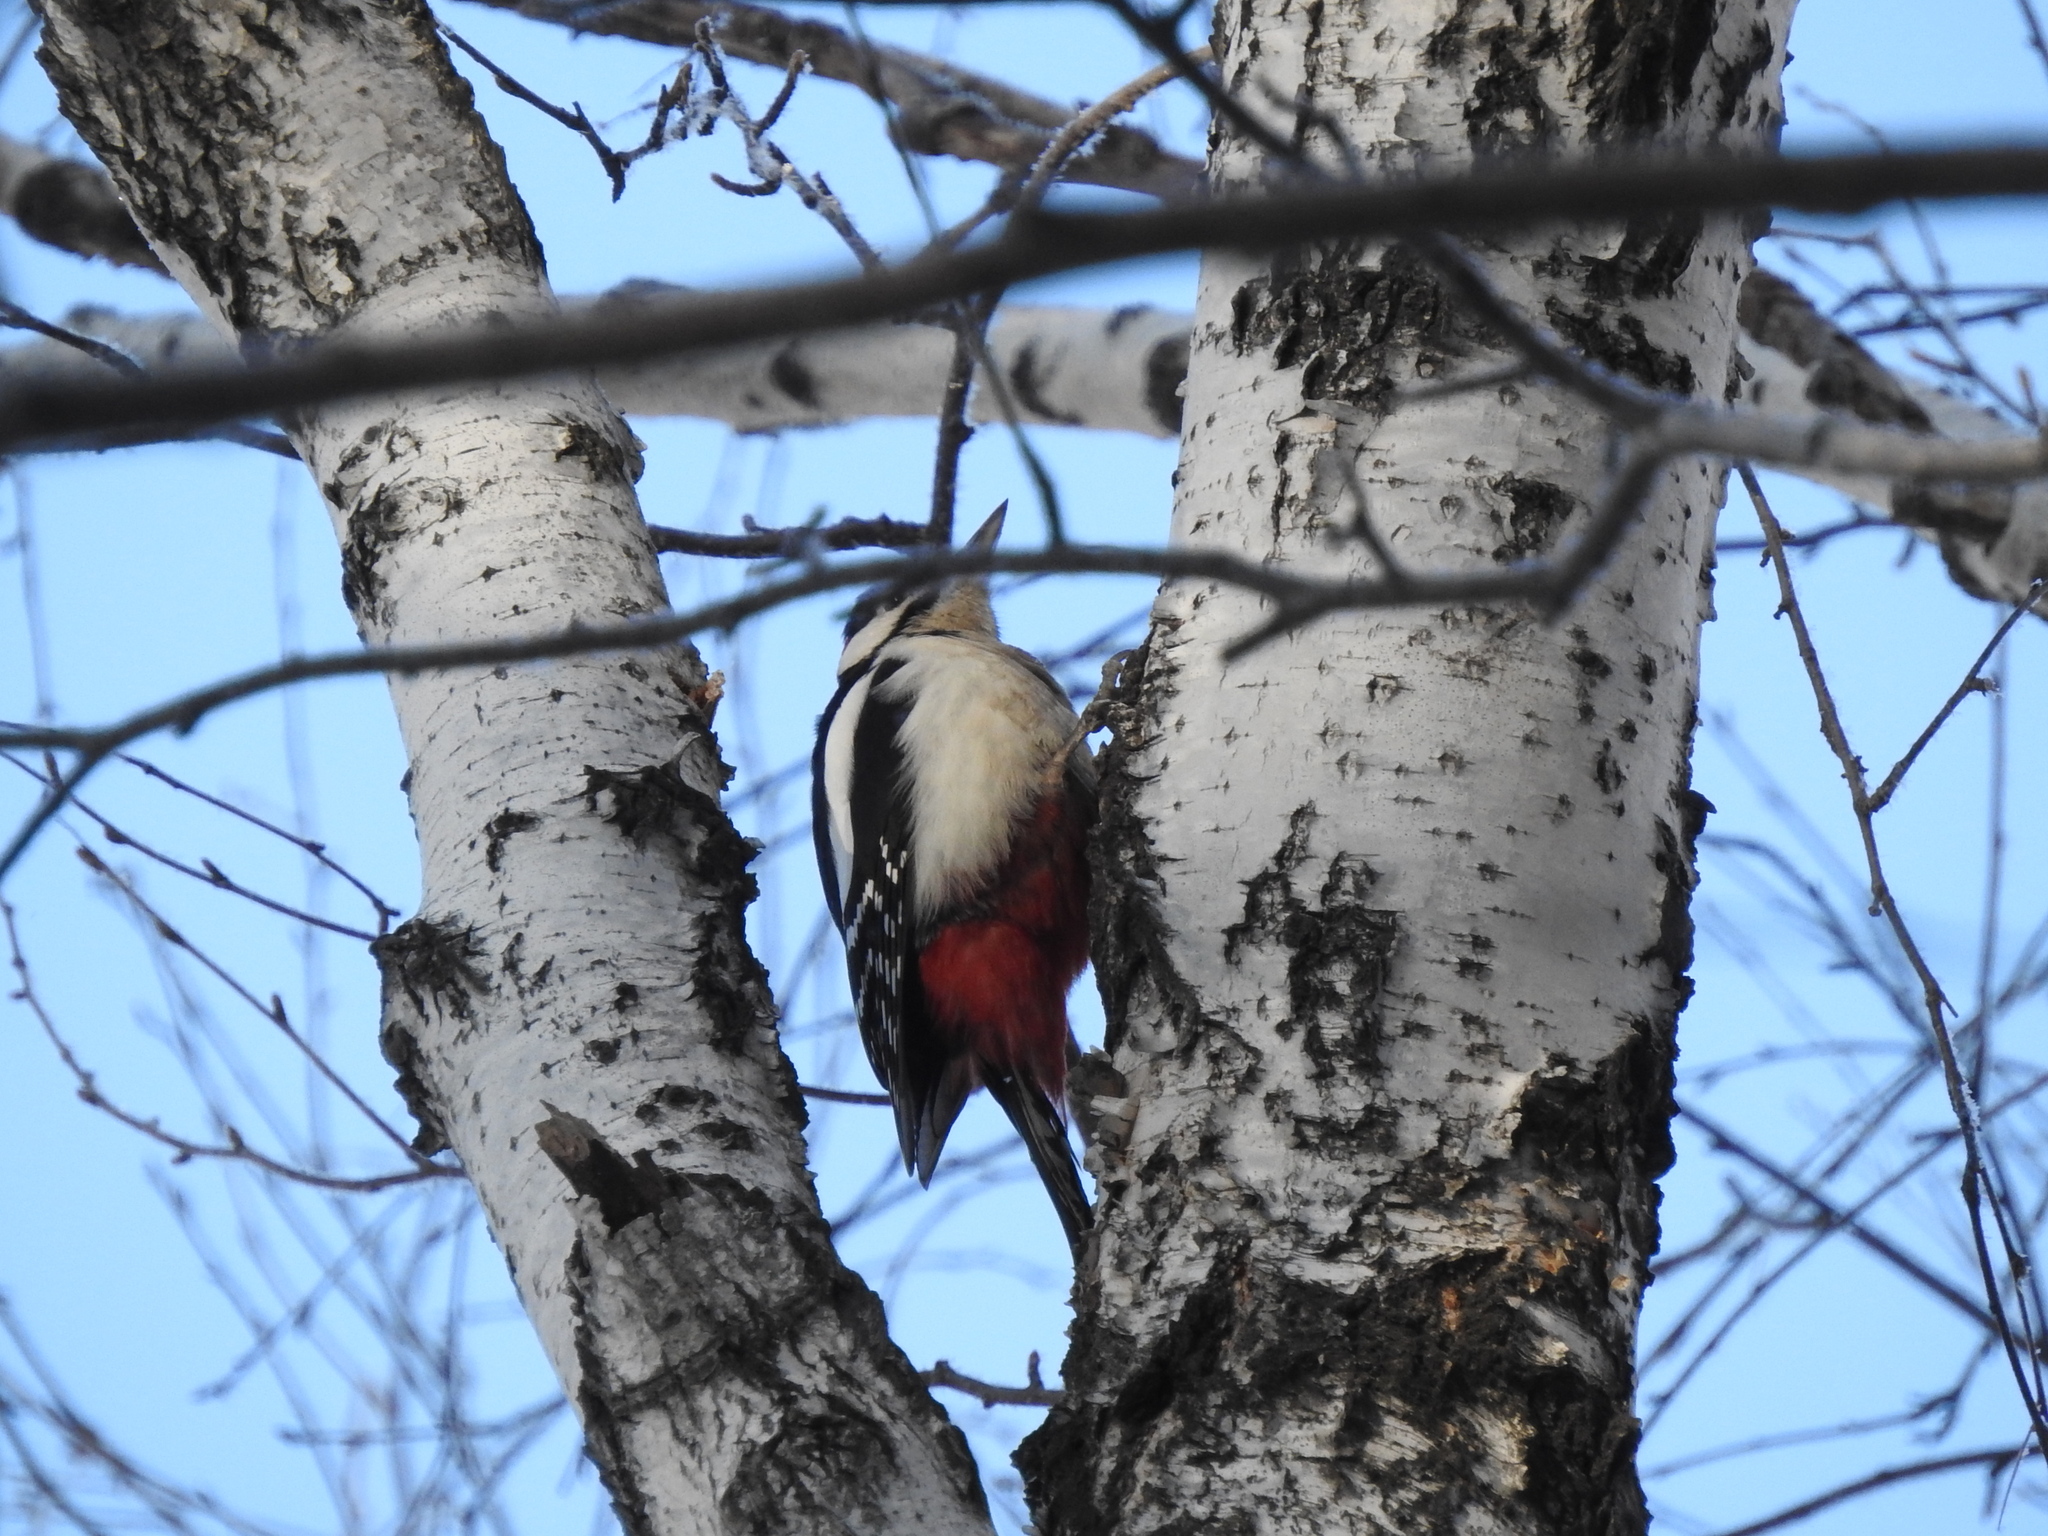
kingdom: Animalia
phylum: Chordata
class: Aves
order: Piciformes
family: Picidae
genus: Dendrocopos
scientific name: Dendrocopos major
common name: Great spotted woodpecker
